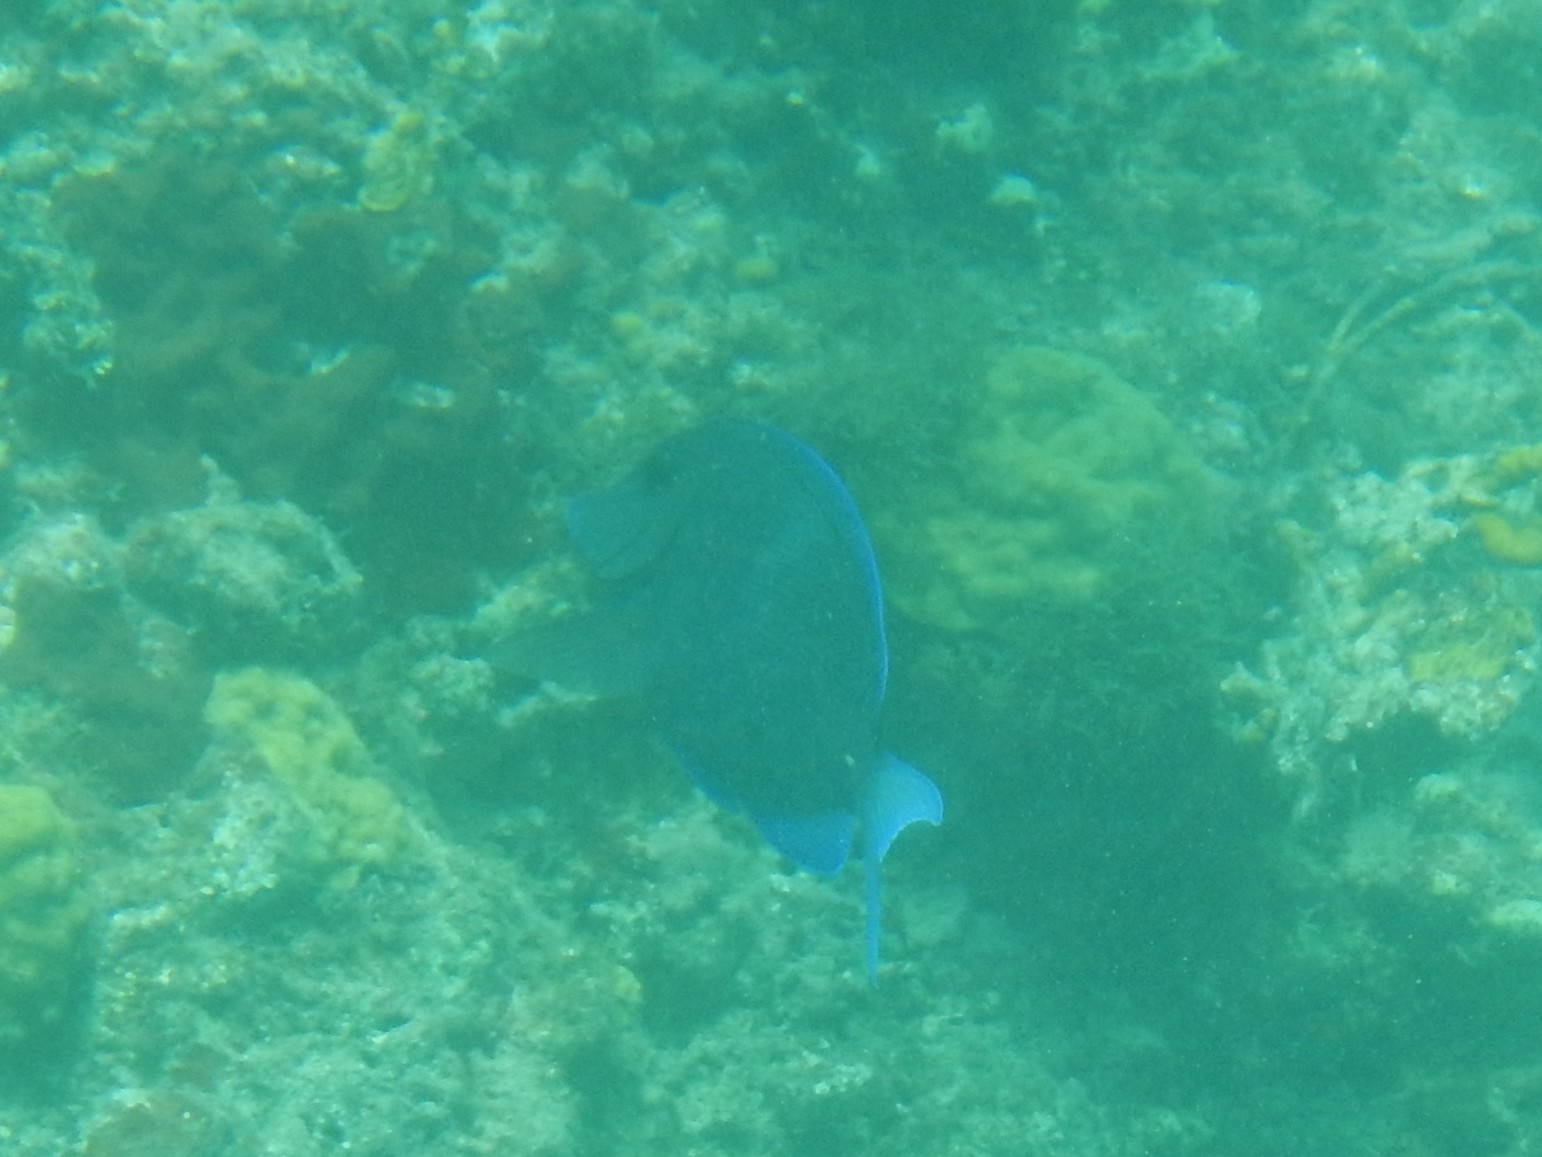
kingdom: Animalia
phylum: Chordata
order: Perciformes
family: Acanthuridae
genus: Acanthurus
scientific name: Acanthurus coeruleus
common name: Blue tang
